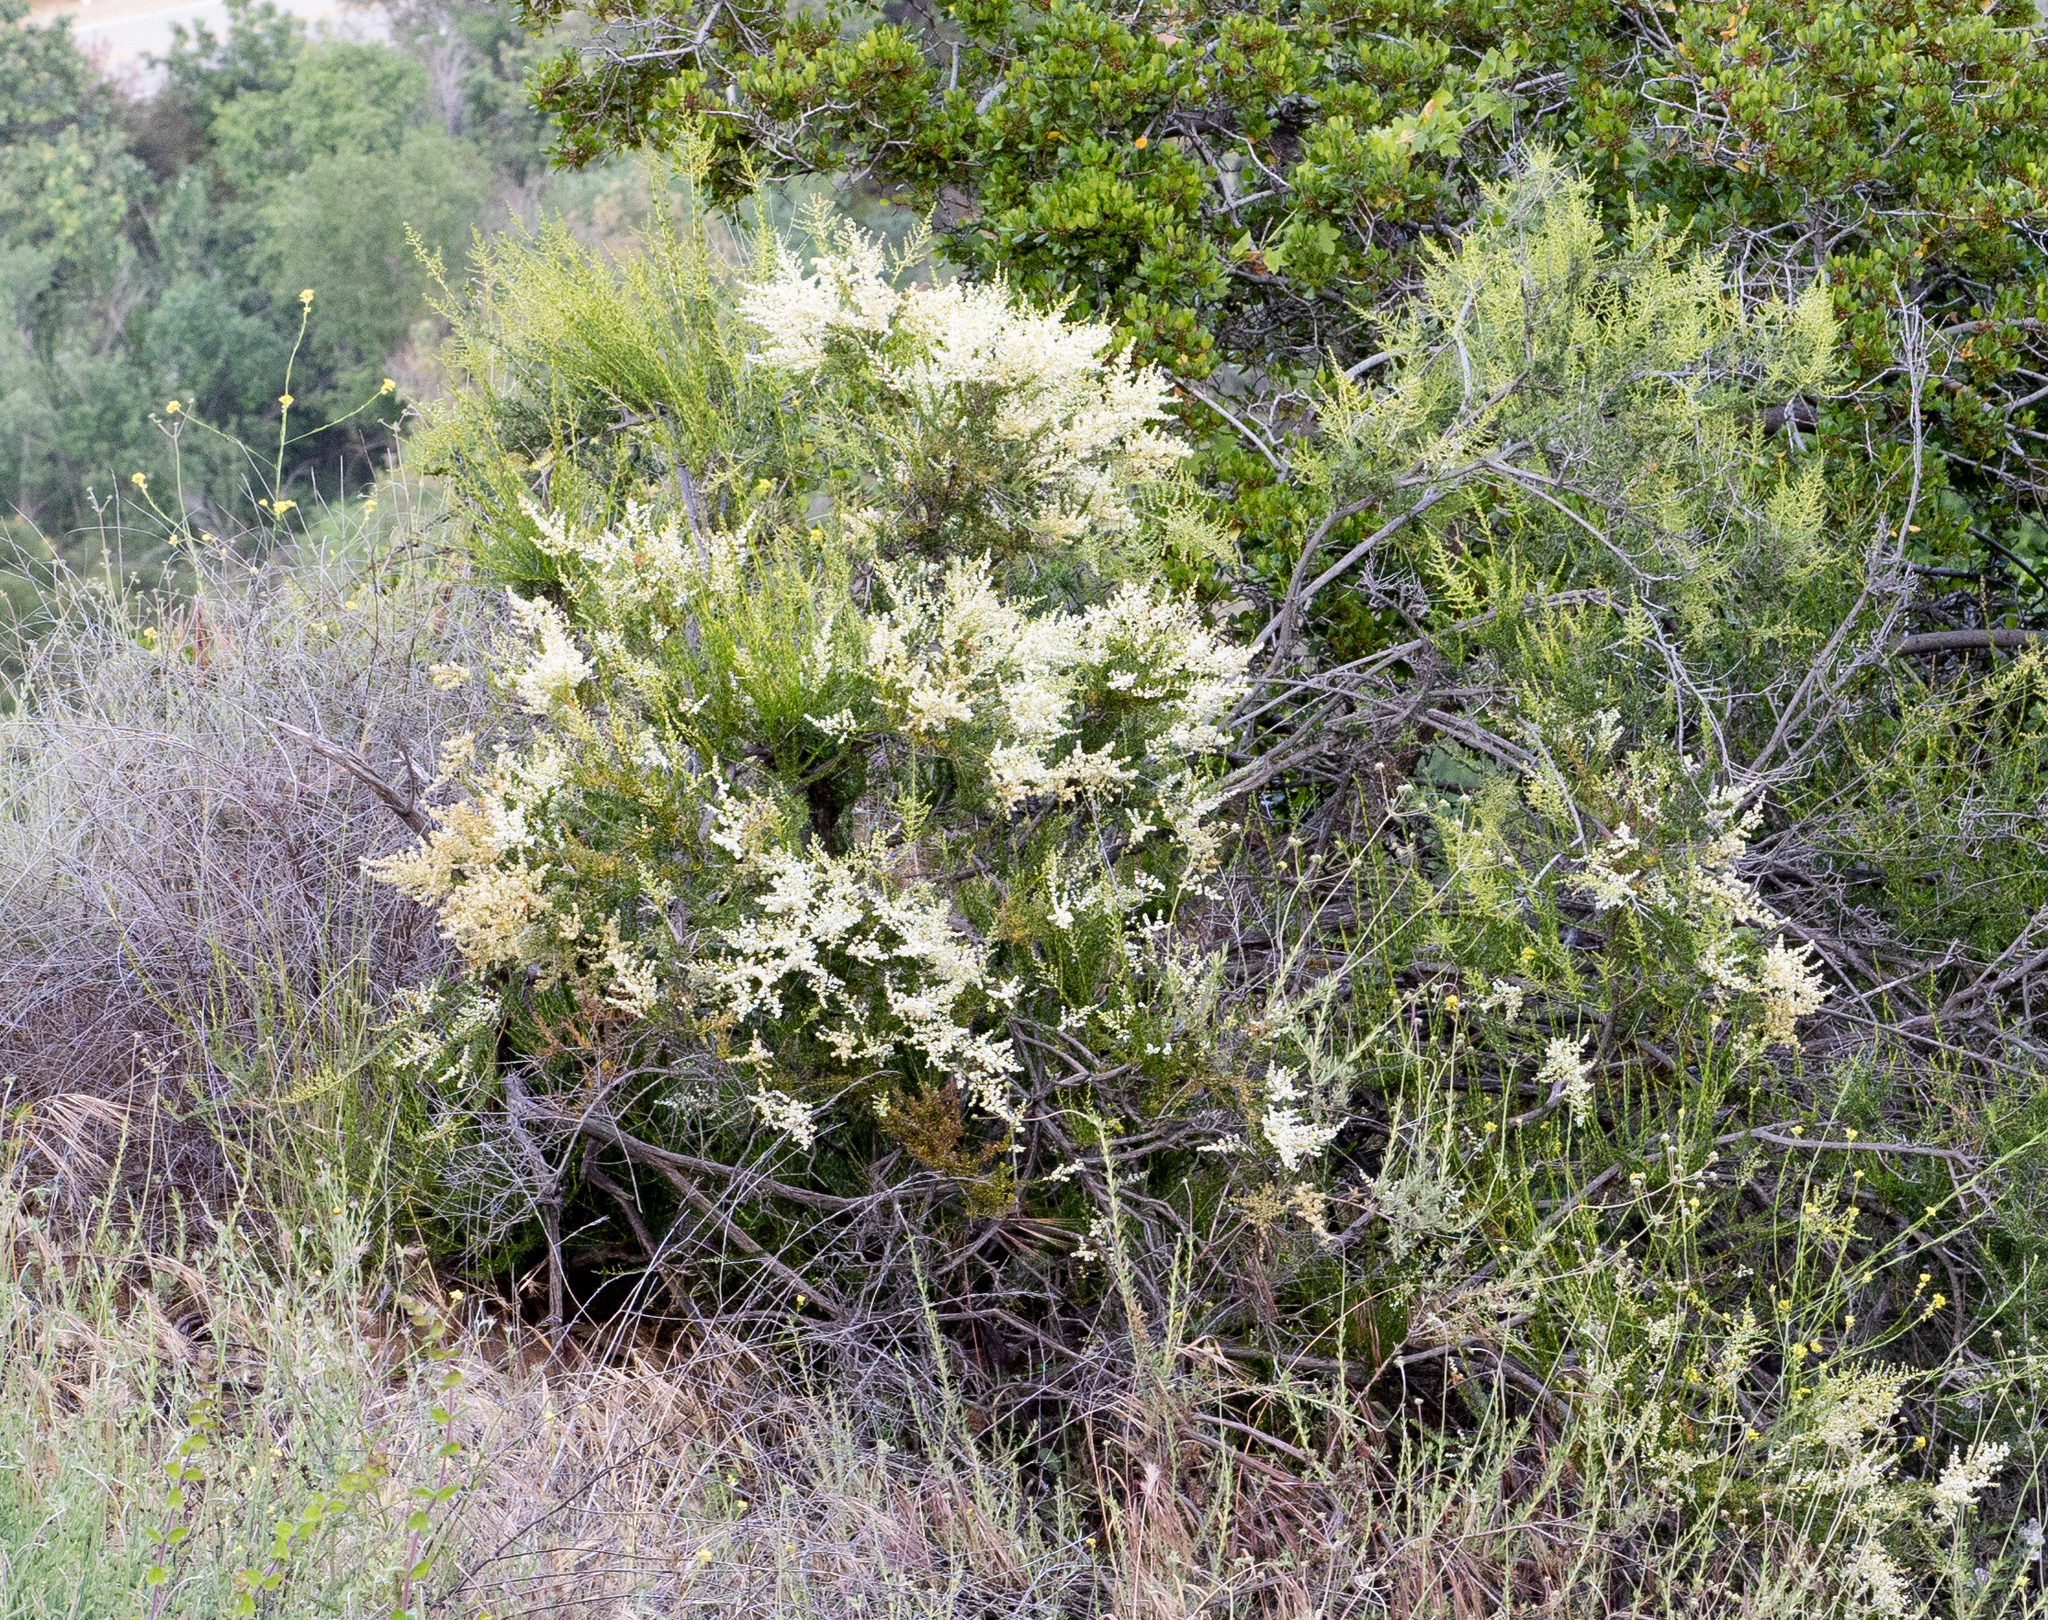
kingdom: Plantae
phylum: Tracheophyta
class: Magnoliopsida
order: Rosales
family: Rosaceae
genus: Adenostoma
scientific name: Adenostoma fasciculatum
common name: Chamise
